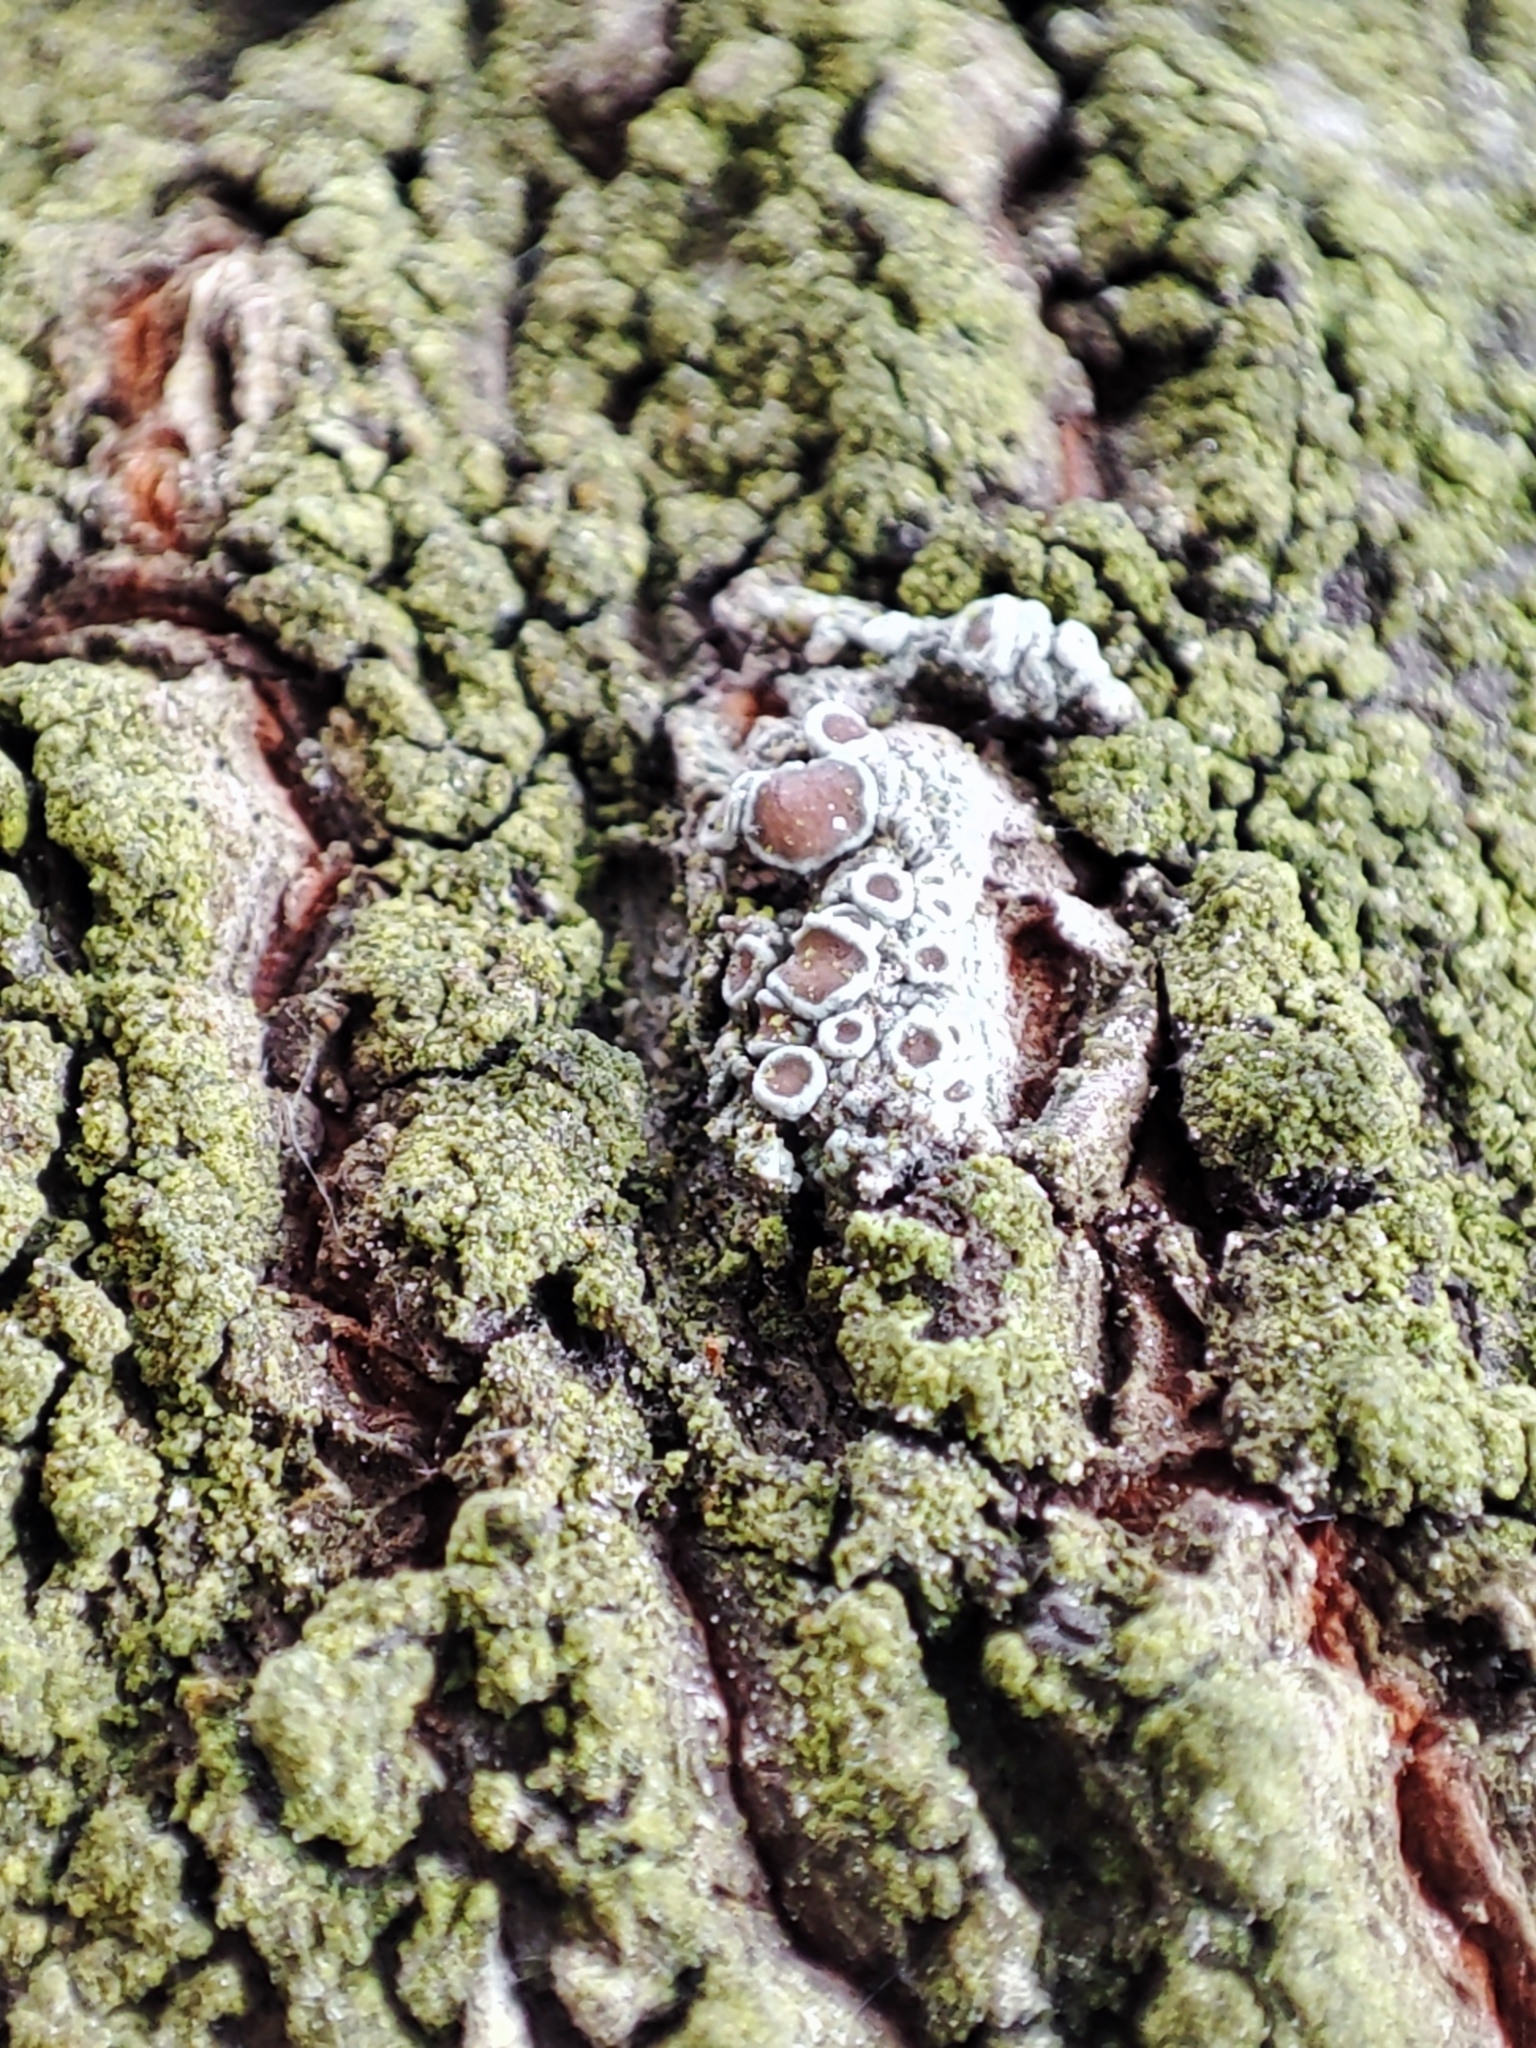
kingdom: Fungi
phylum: Ascomycota
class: Lecanoromycetes
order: Lecanorales
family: Lecanoraceae
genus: Lecanora
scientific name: Lecanora argentata
